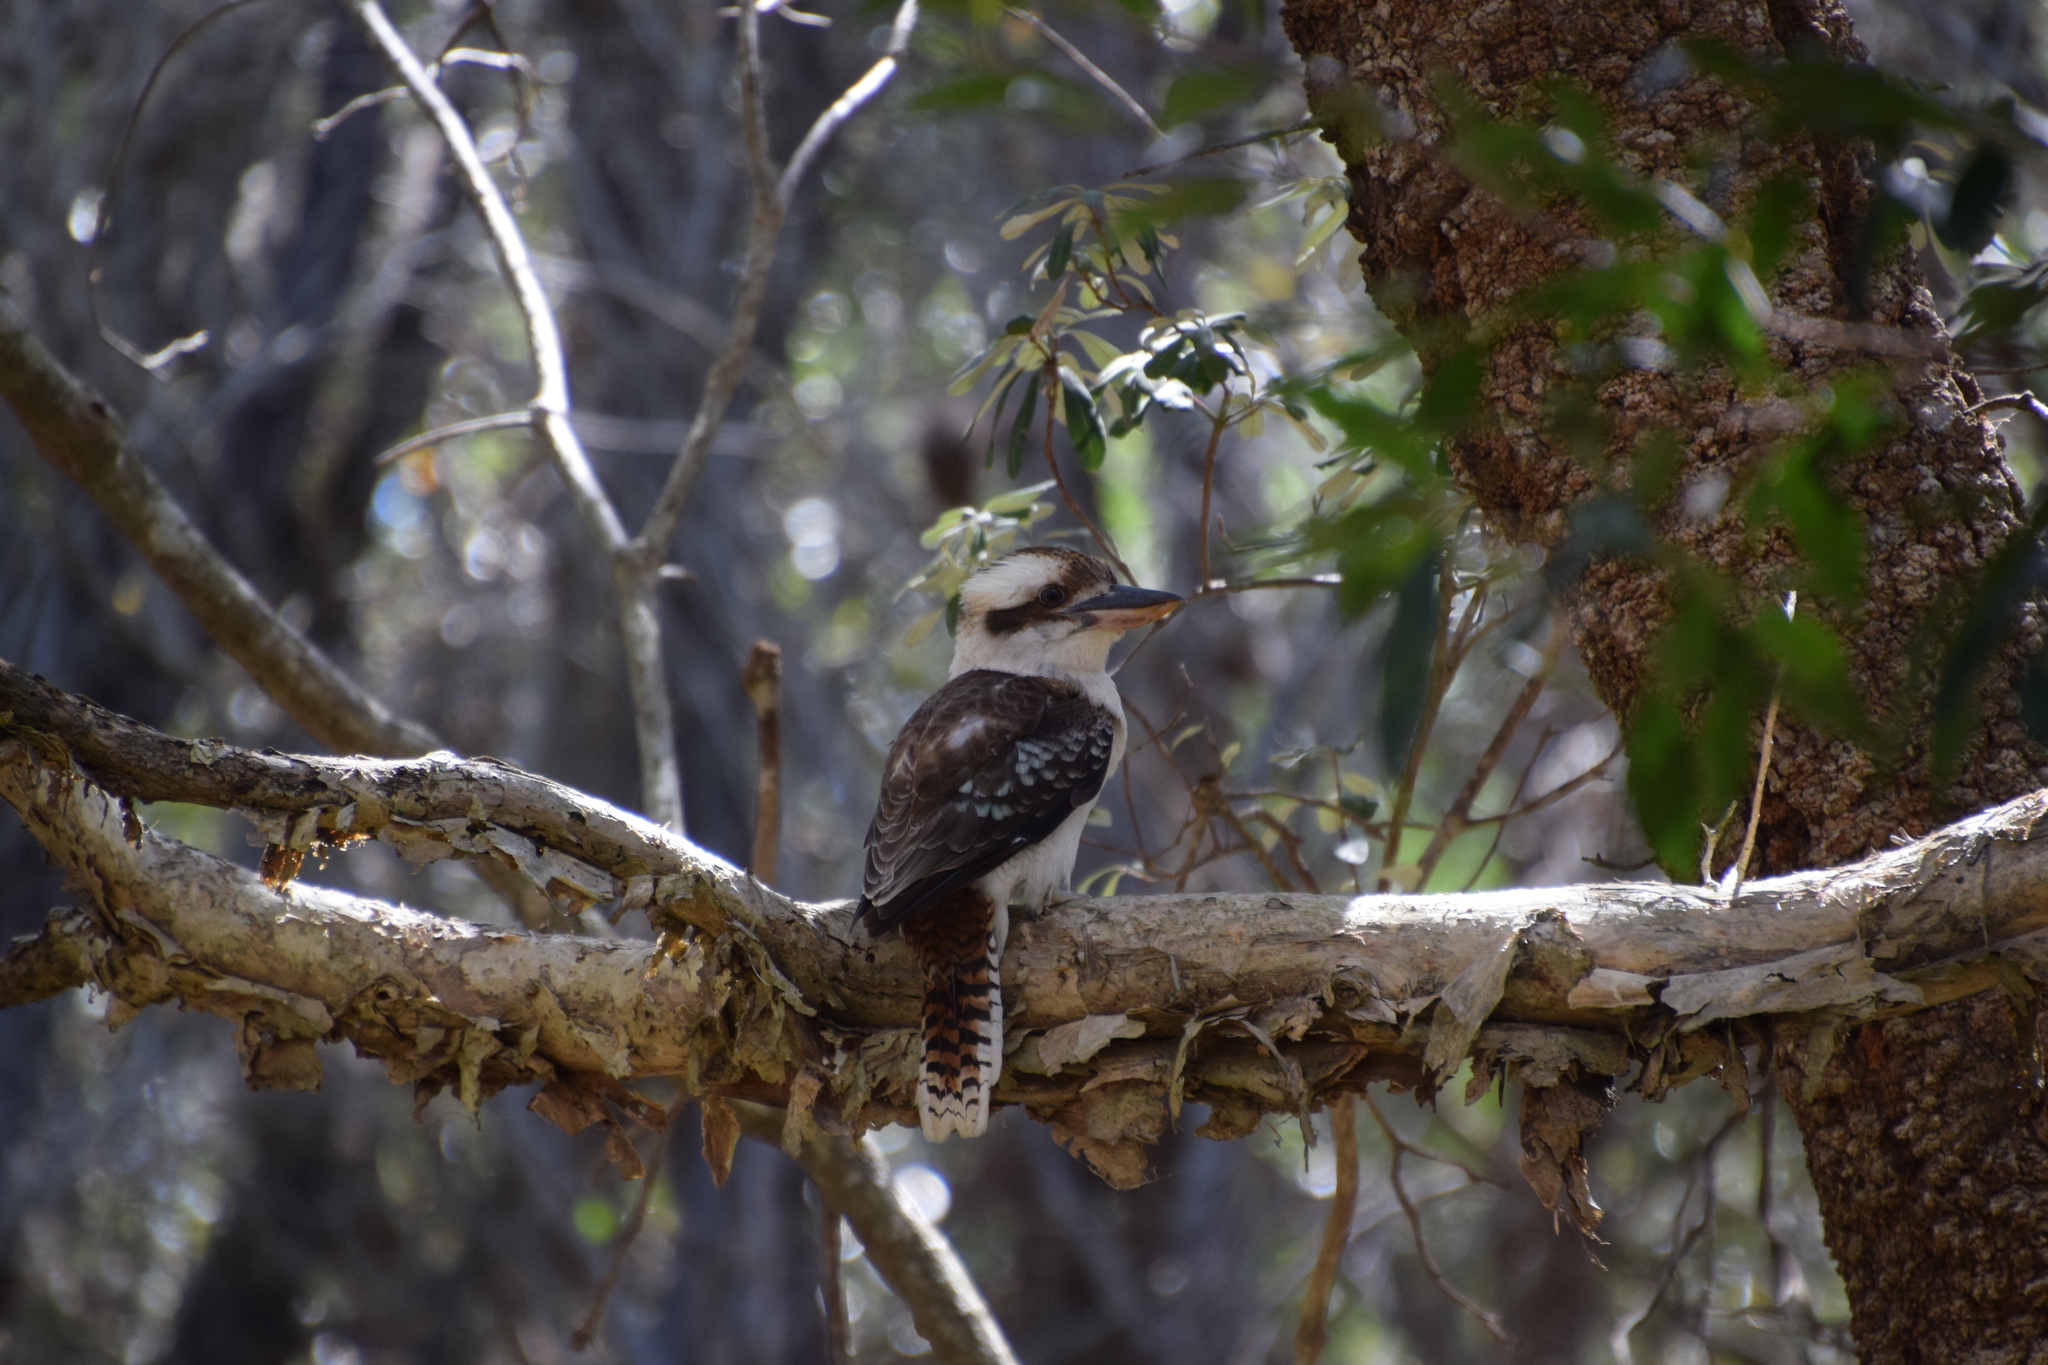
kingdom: Animalia
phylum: Chordata
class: Aves
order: Coraciiformes
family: Alcedinidae
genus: Dacelo
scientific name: Dacelo novaeguineae
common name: Laughing kookaburra
